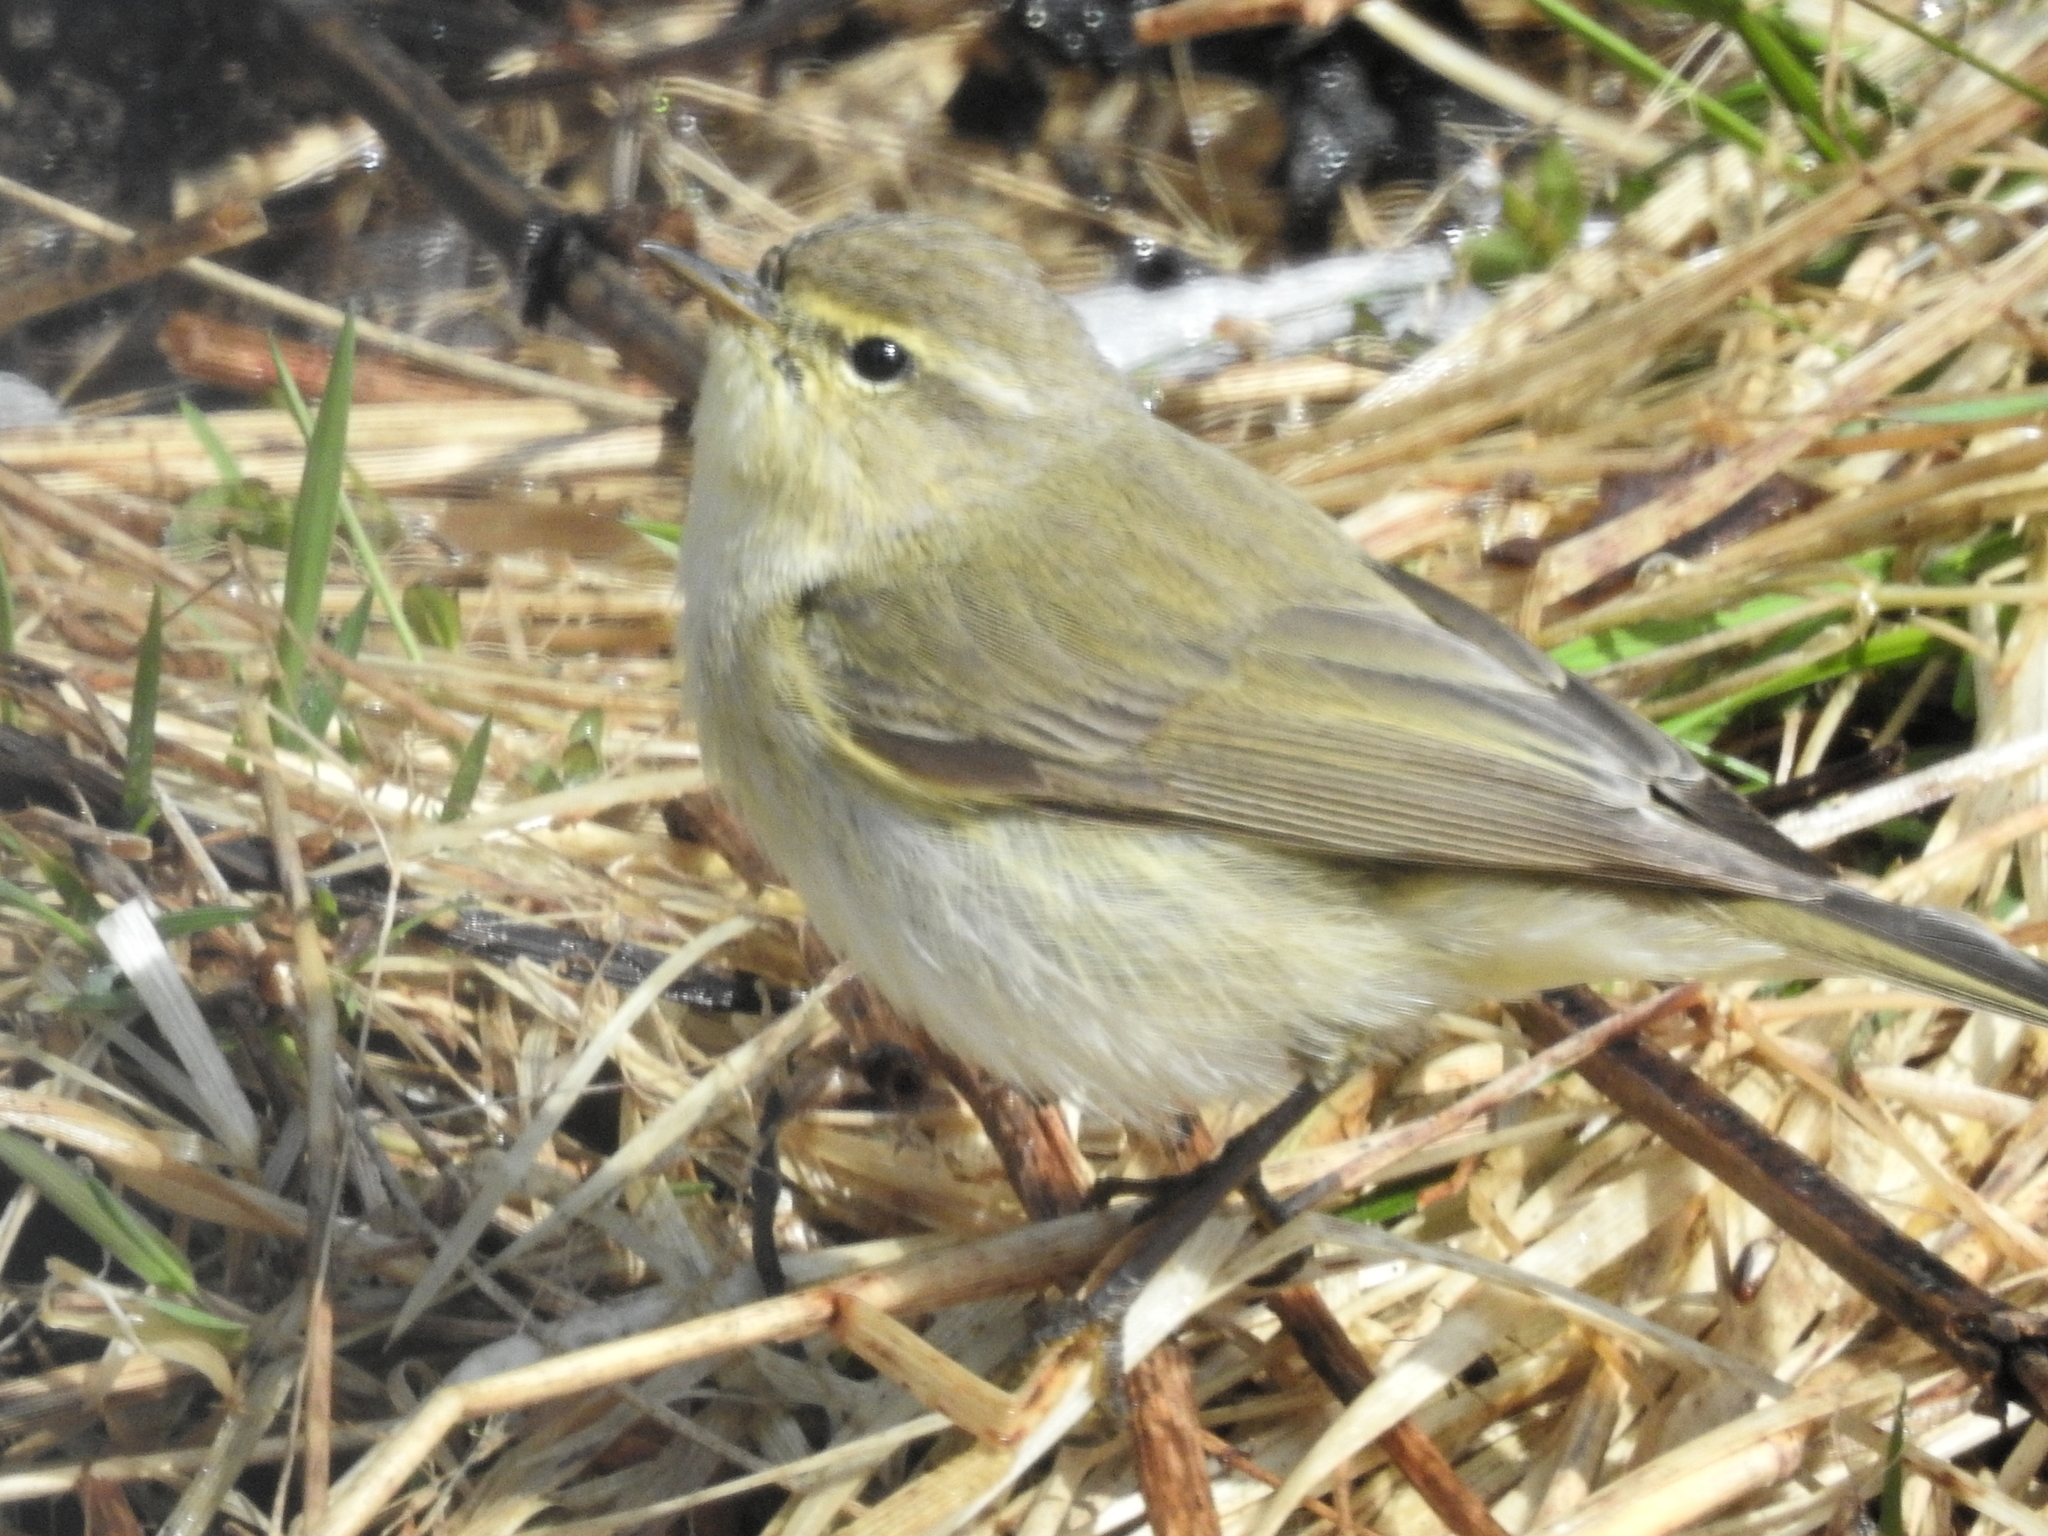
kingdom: Animalia
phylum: Chordata
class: Aves
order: Passeriformes
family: Phylloscopidae
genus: Phylloscopus
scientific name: Phylloscopus collybita
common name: Common chiffchaff
